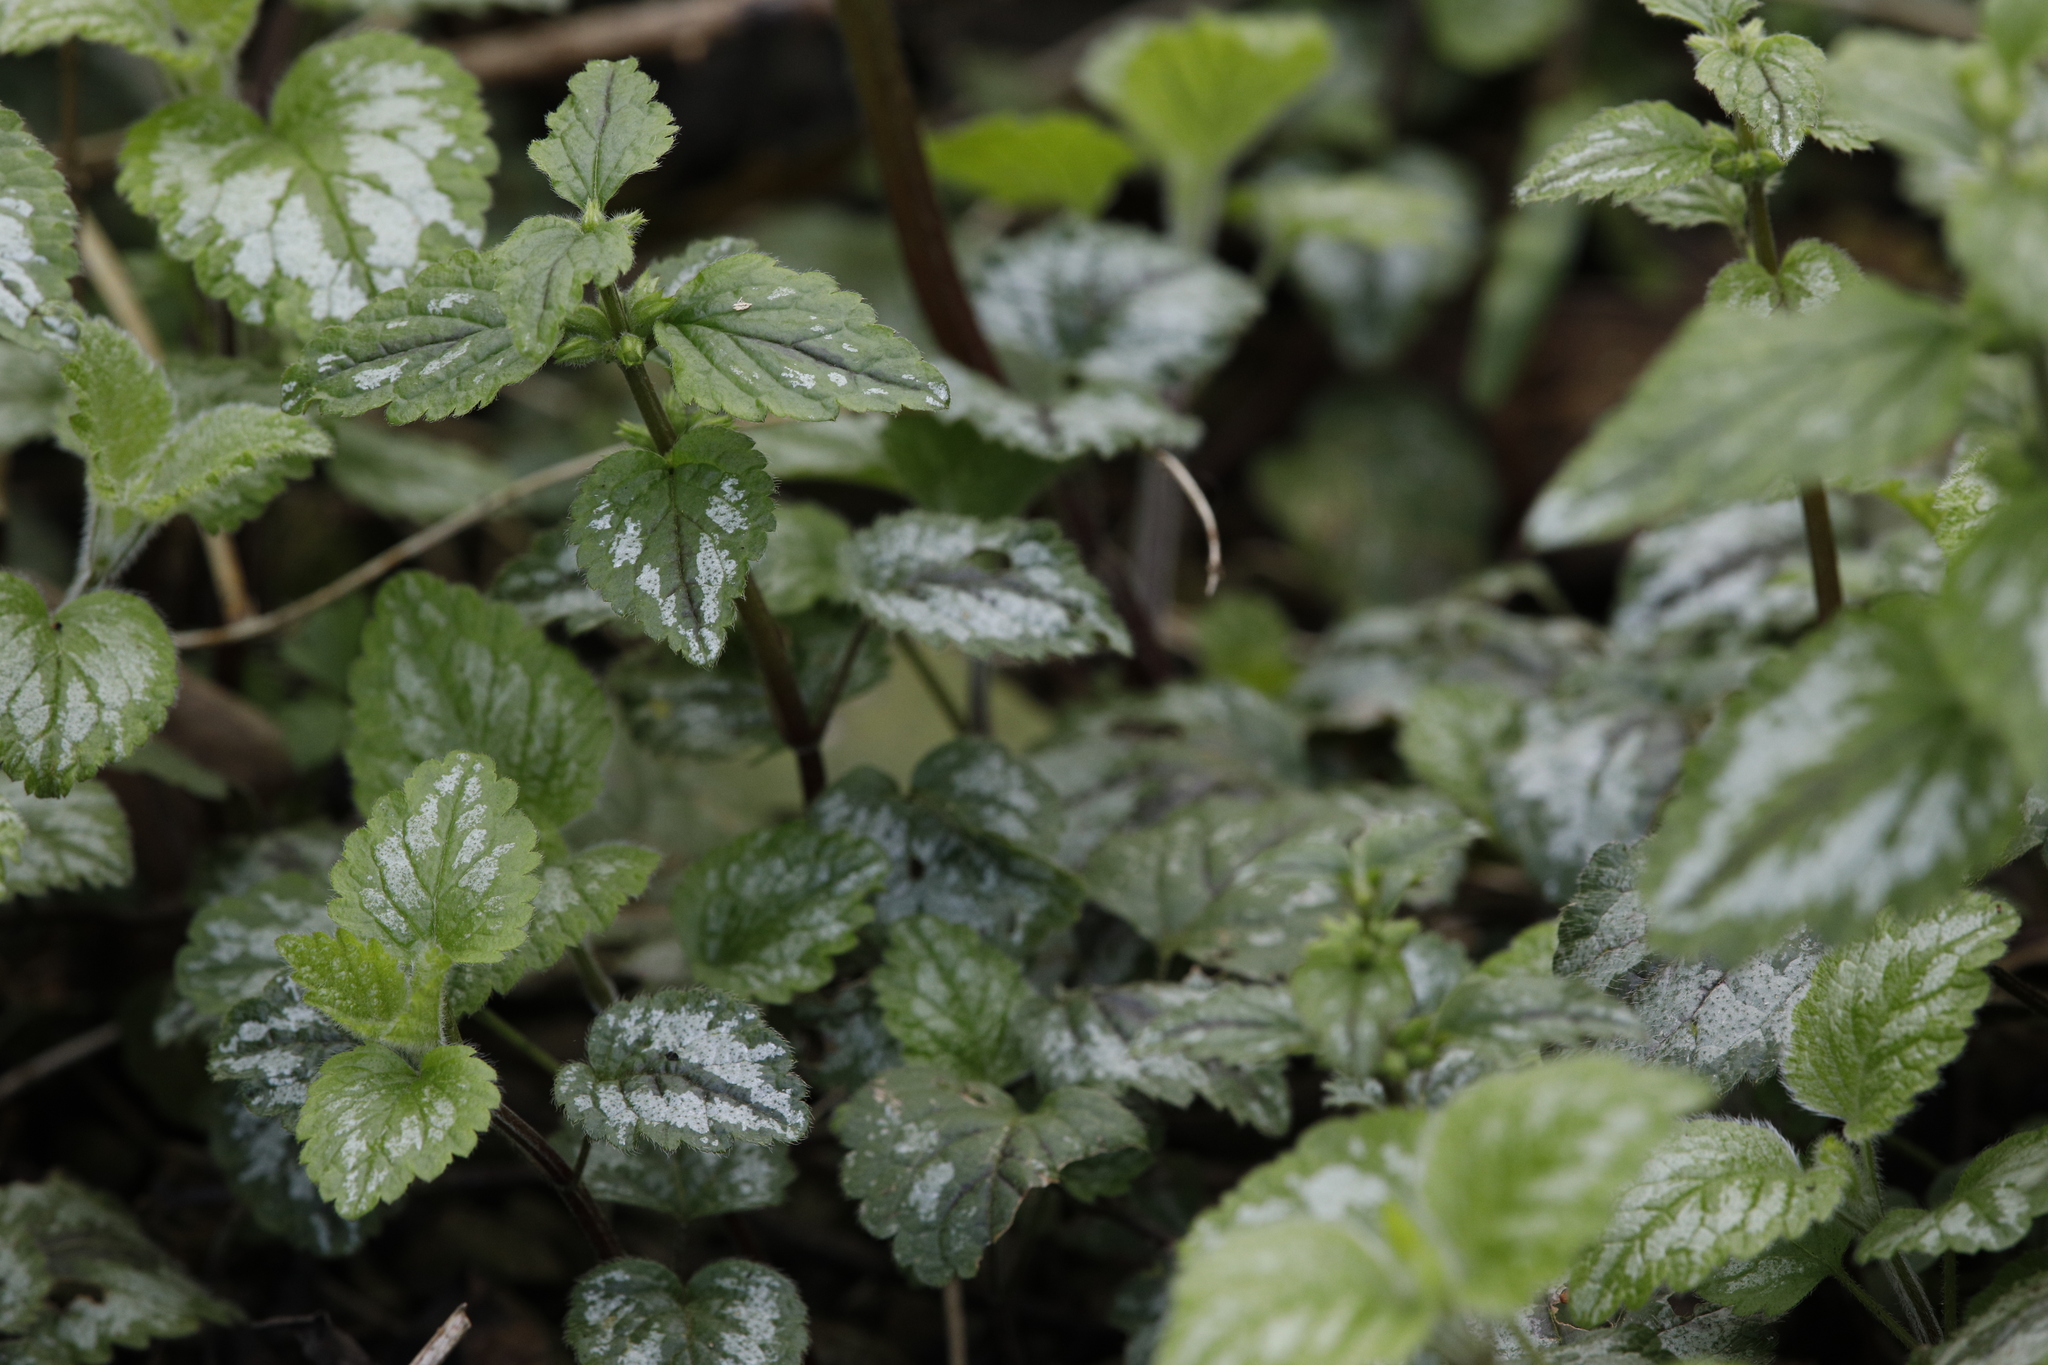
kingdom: Plantae
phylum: Tracheophyta
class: Magnoliopsida
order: Lamiales
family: Lamiaceae
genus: Lamium
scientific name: Lamium galeobdolon
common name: Yellow archangel
